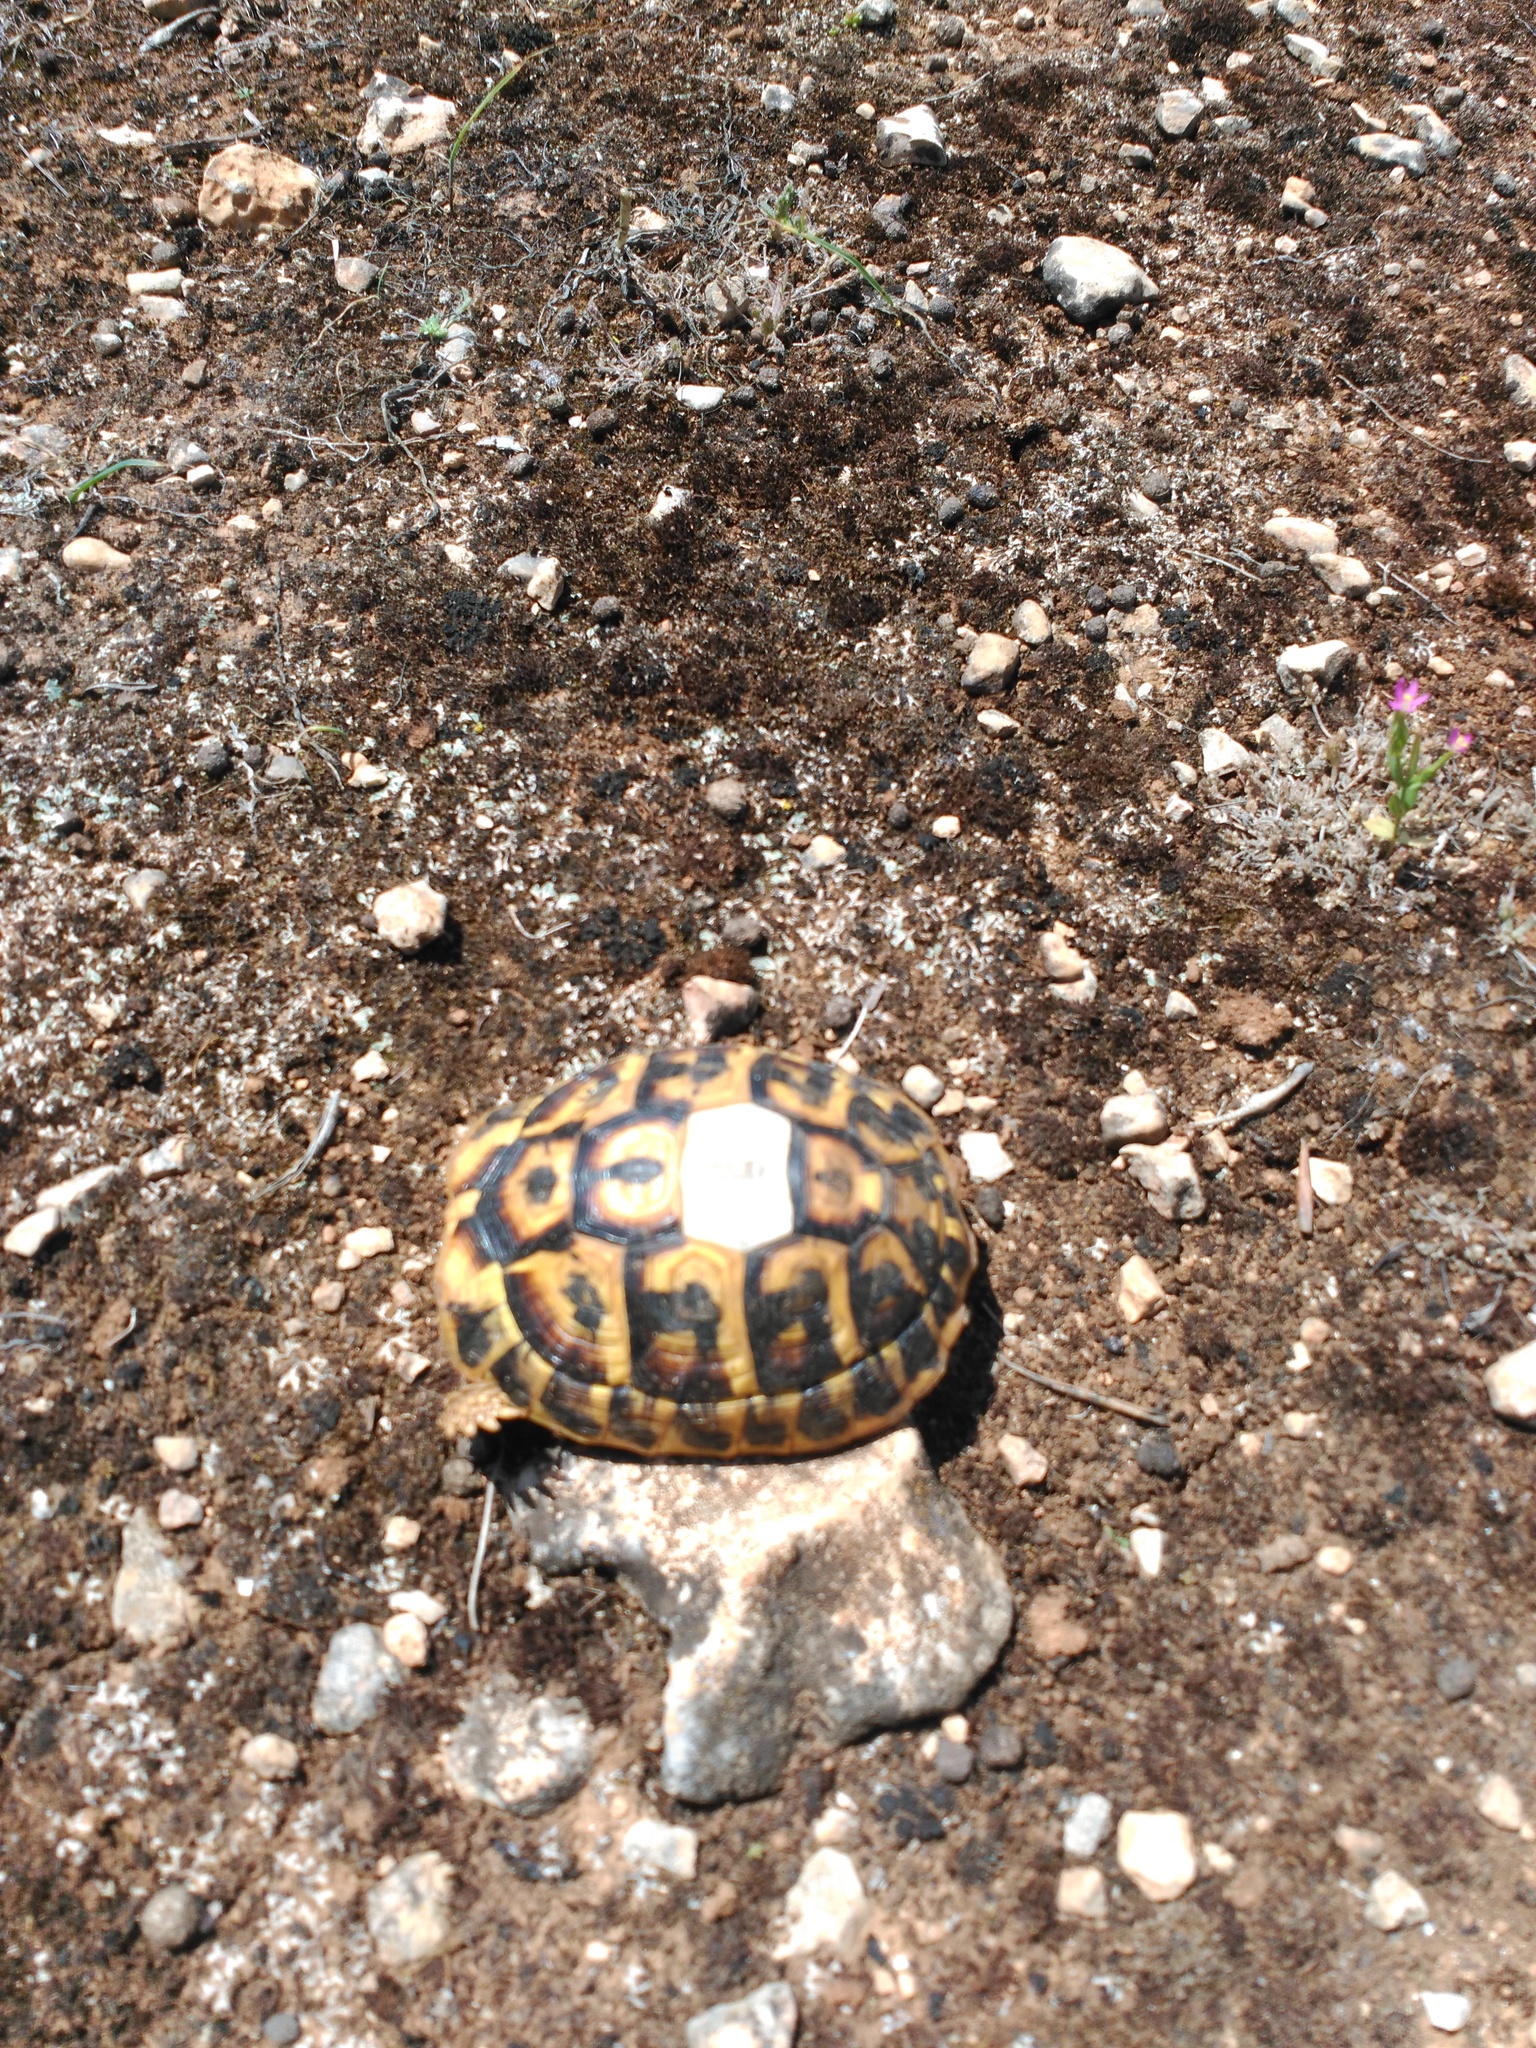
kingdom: Animalia
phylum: Chordata
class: Testudines
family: Testudinidae
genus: Testudo
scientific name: Testudo hermanni
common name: Hermann's tortoise
